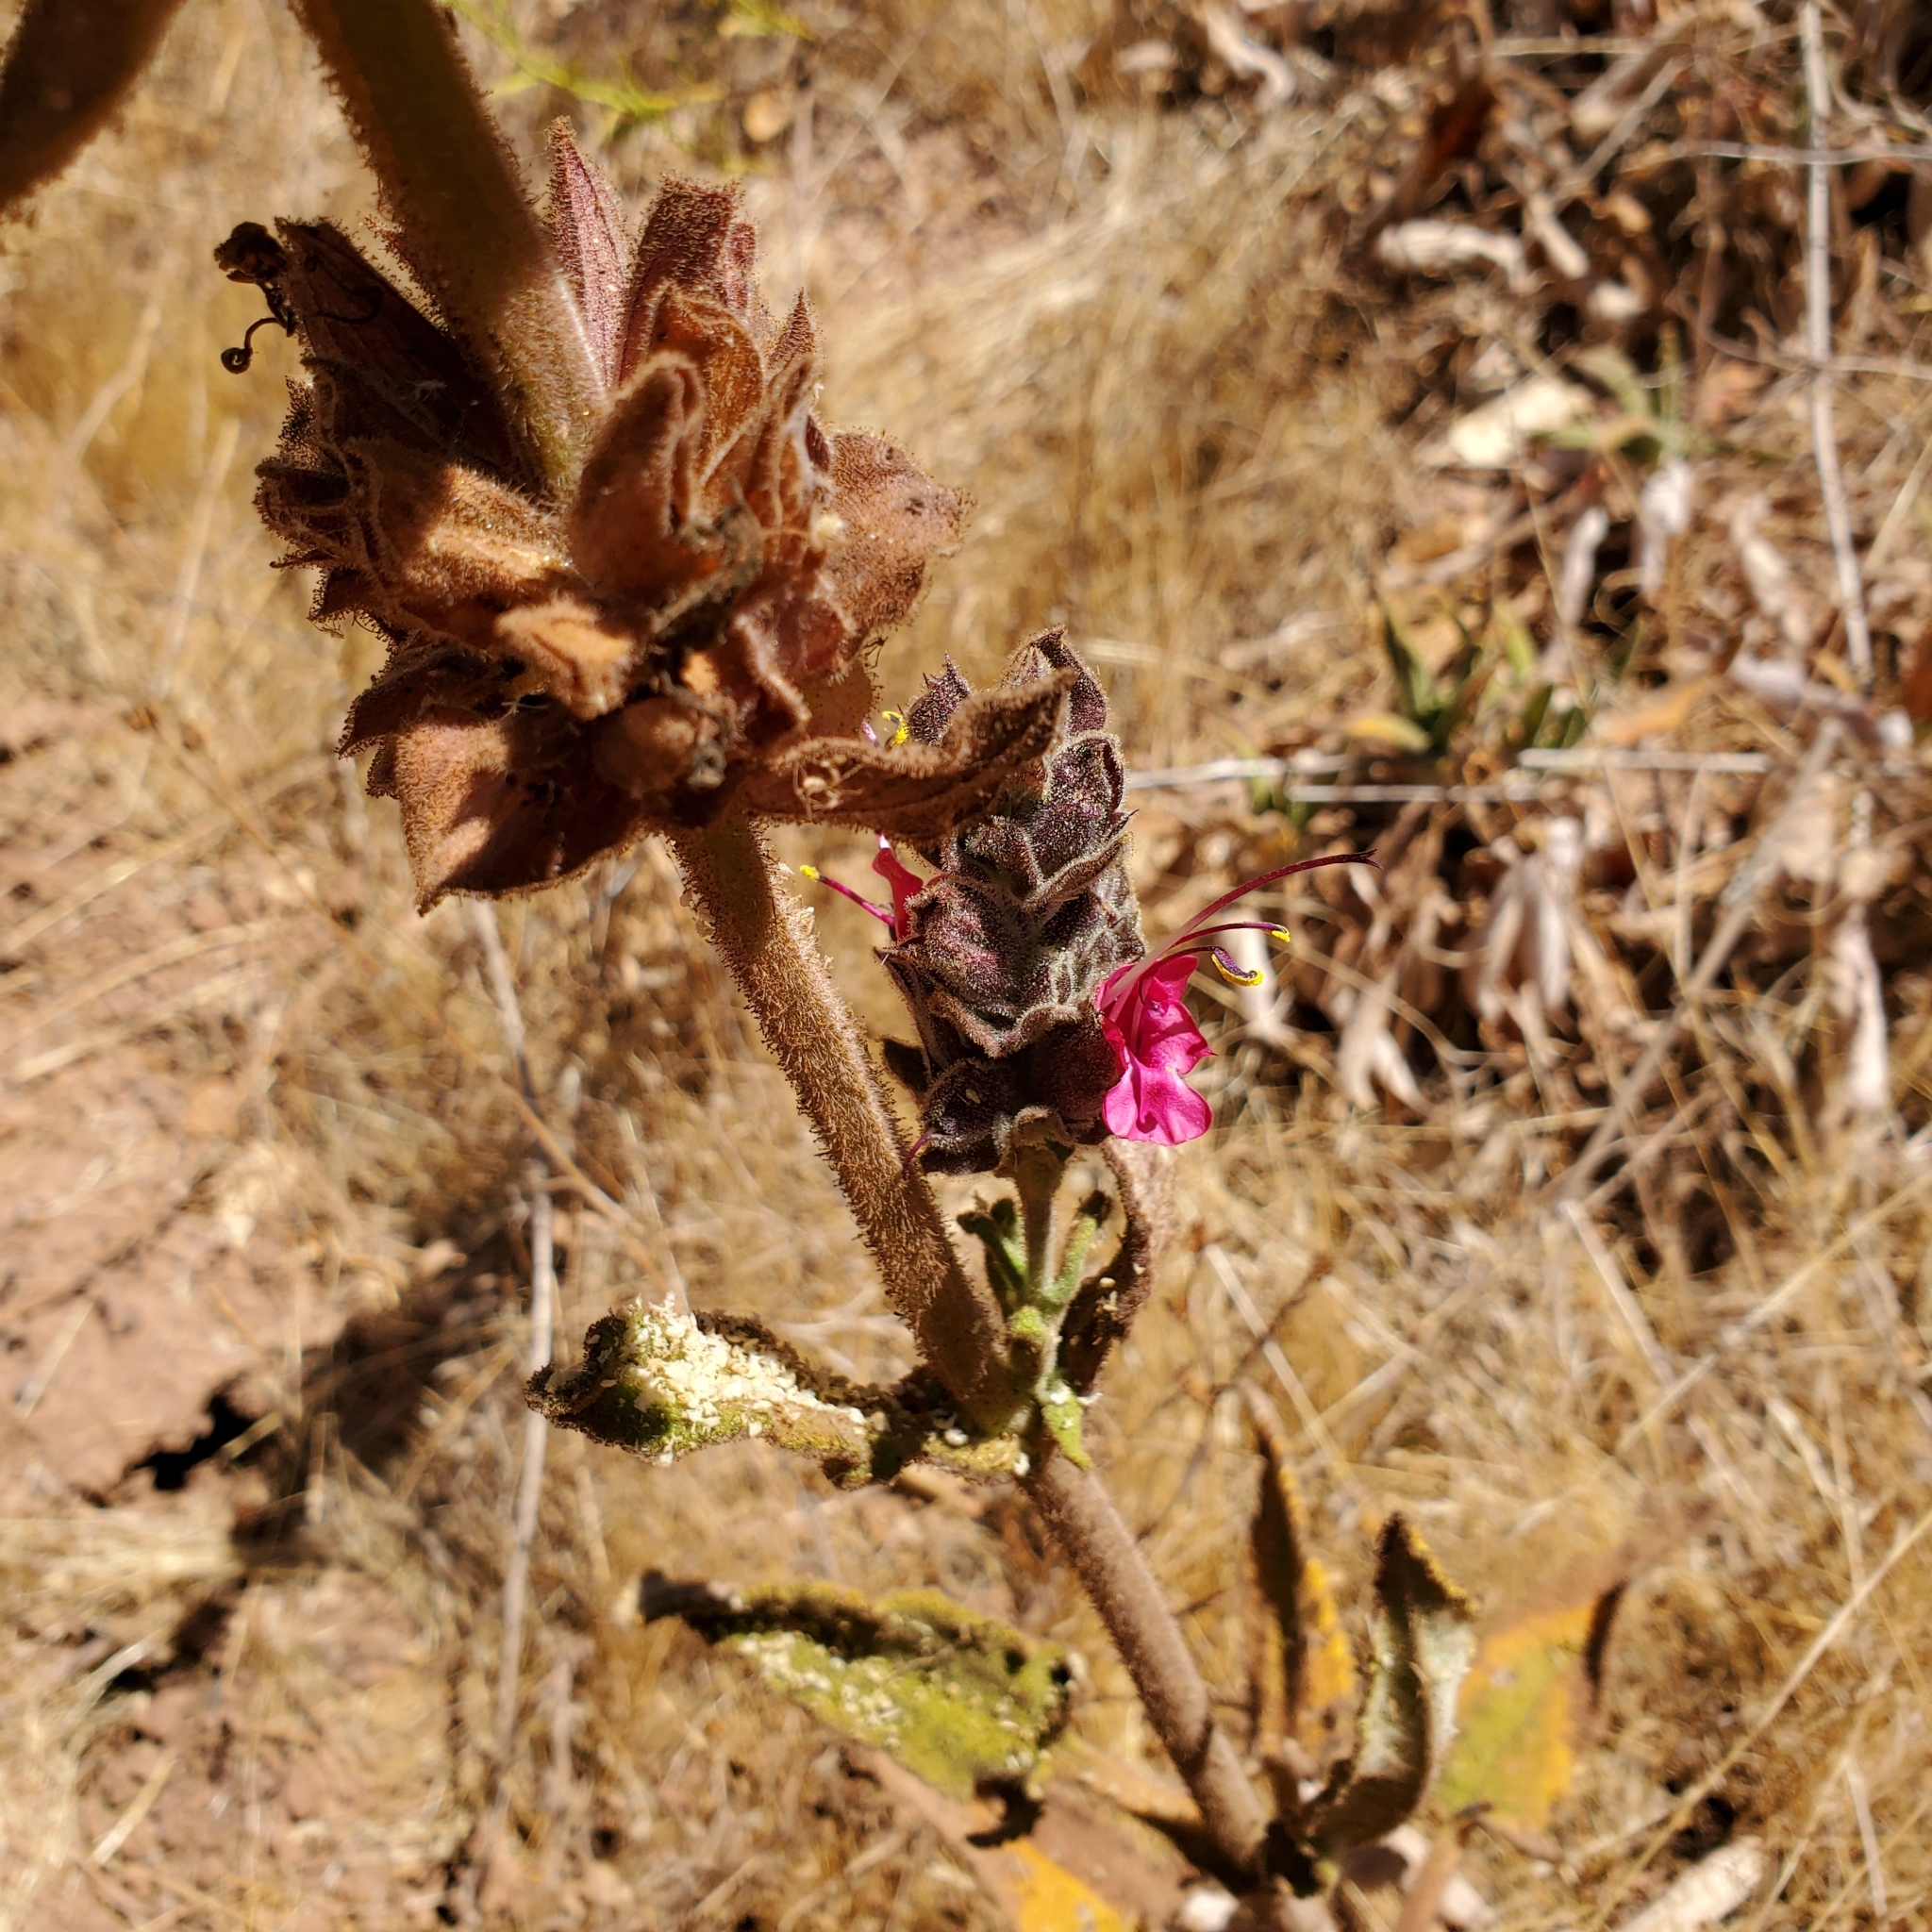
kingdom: Plantae
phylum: Tracheophyta
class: Magnoliopsida
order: Lamiales
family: Lamiaceae
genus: Salvia
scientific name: Salvia spathacea
